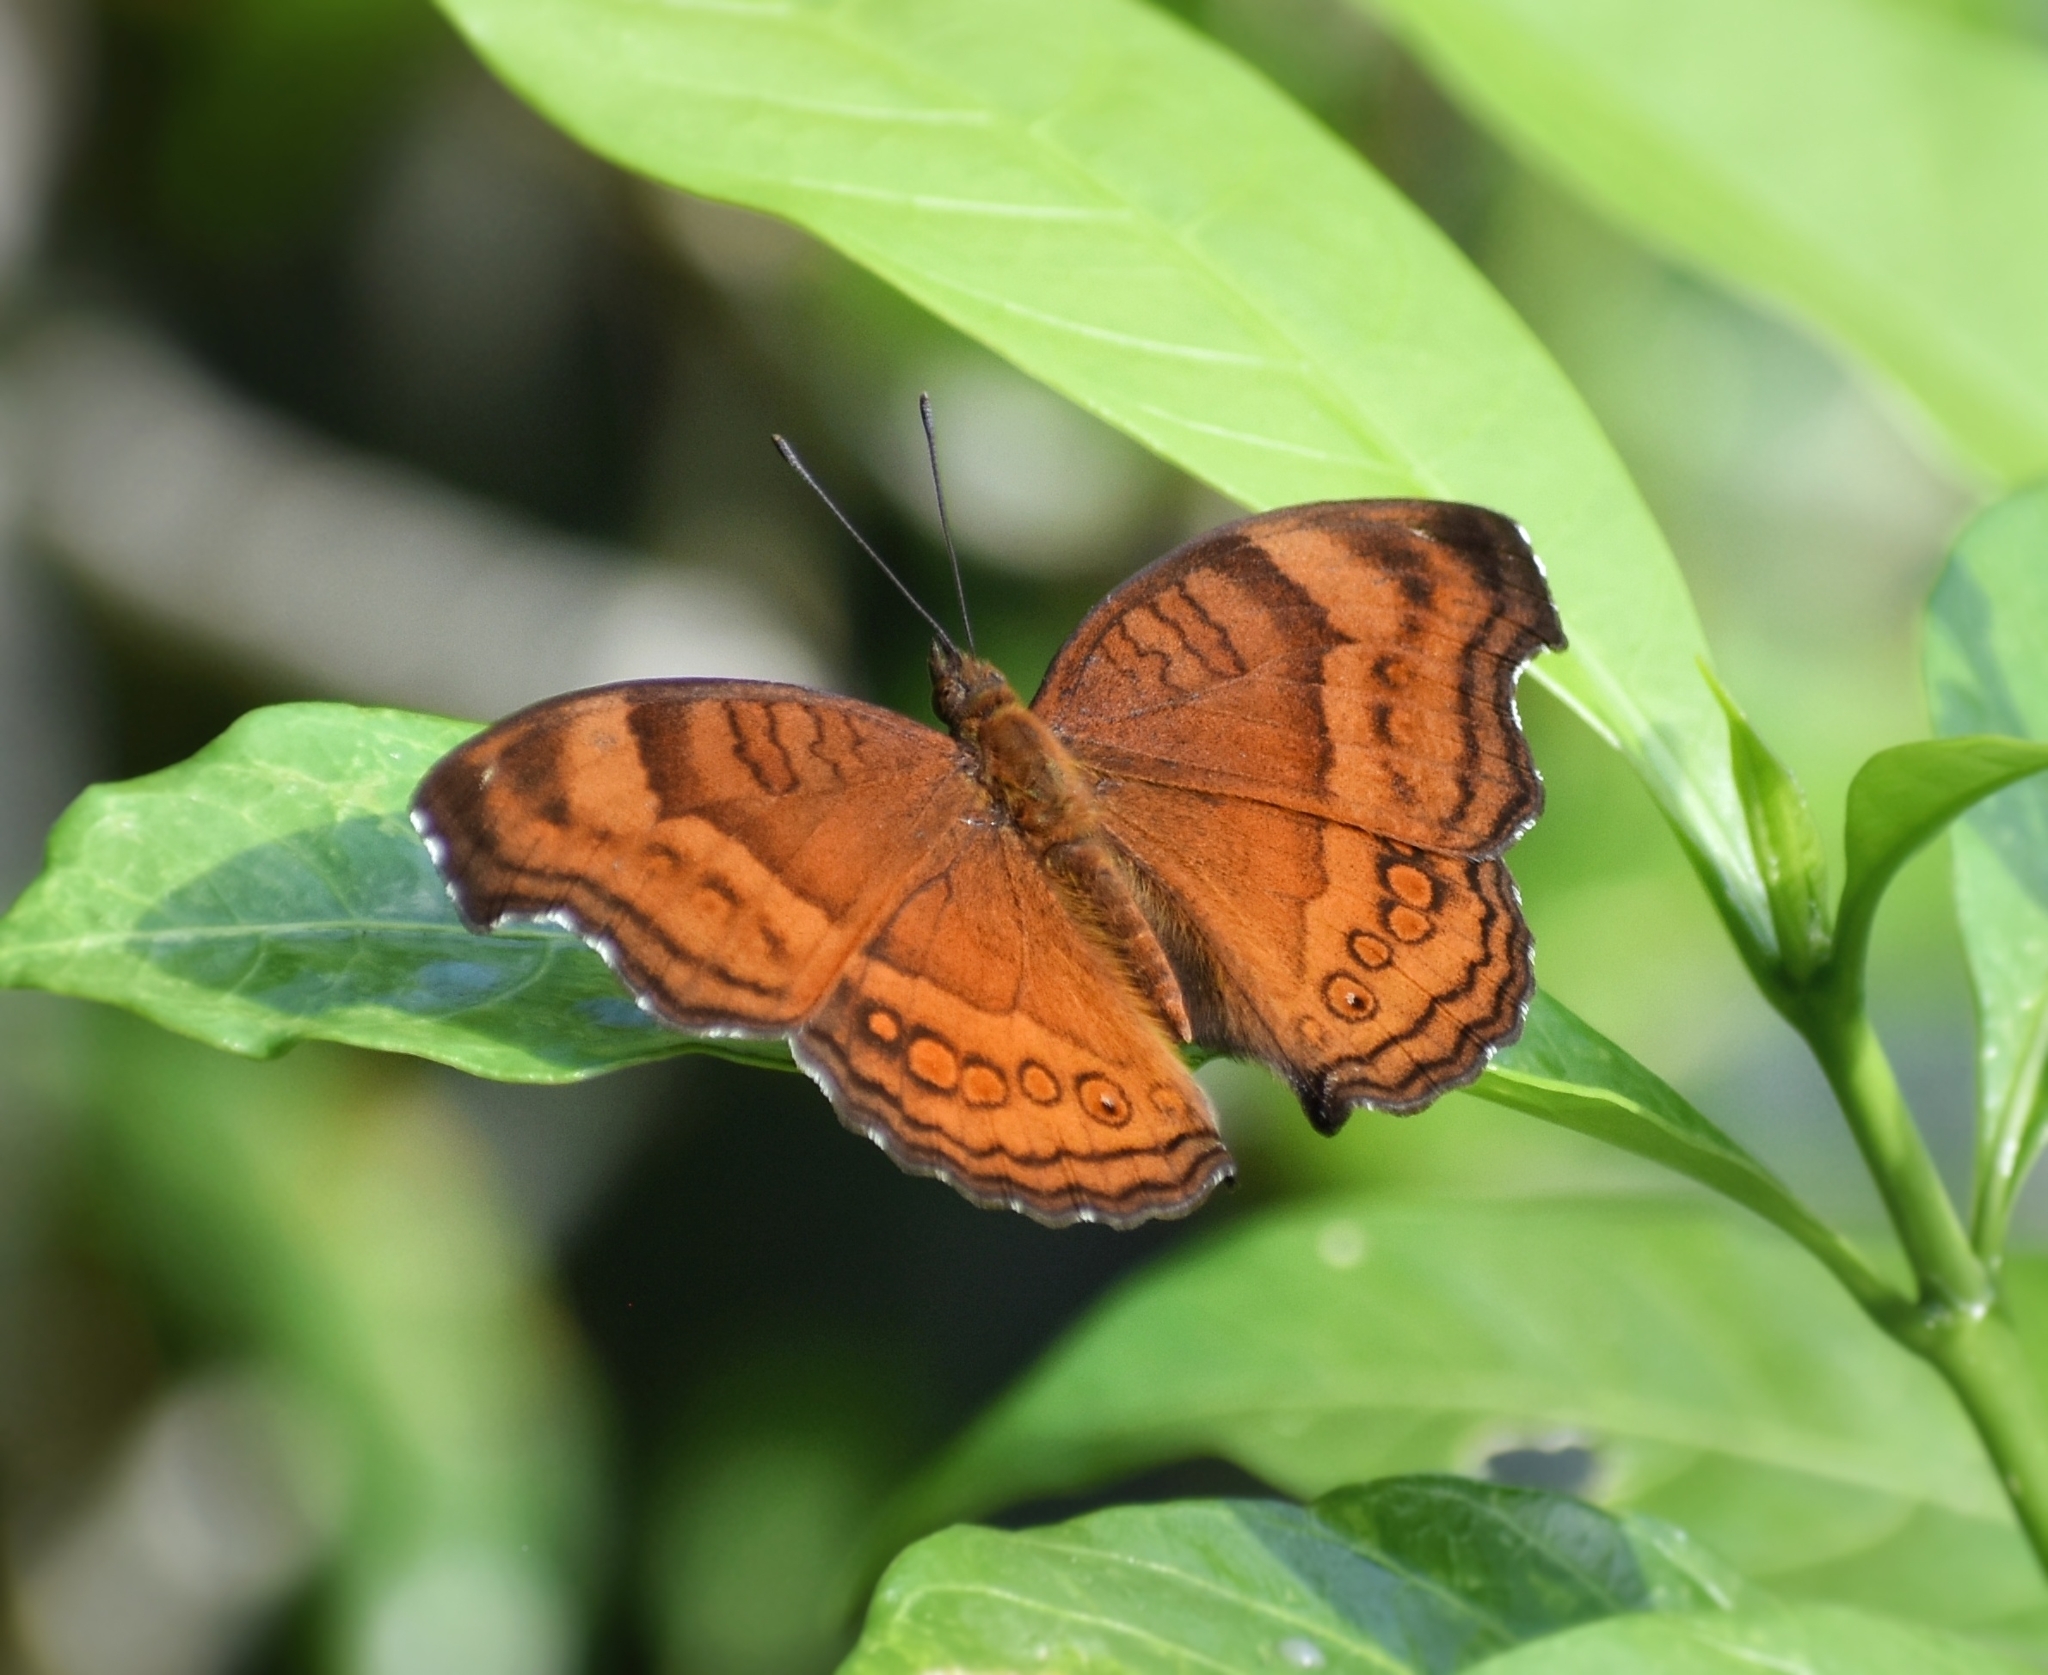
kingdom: Animalia
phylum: Arthropoda
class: Insecta
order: Lepidoptera
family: Nymphalidae
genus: Junonia
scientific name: Junonia hedonia
